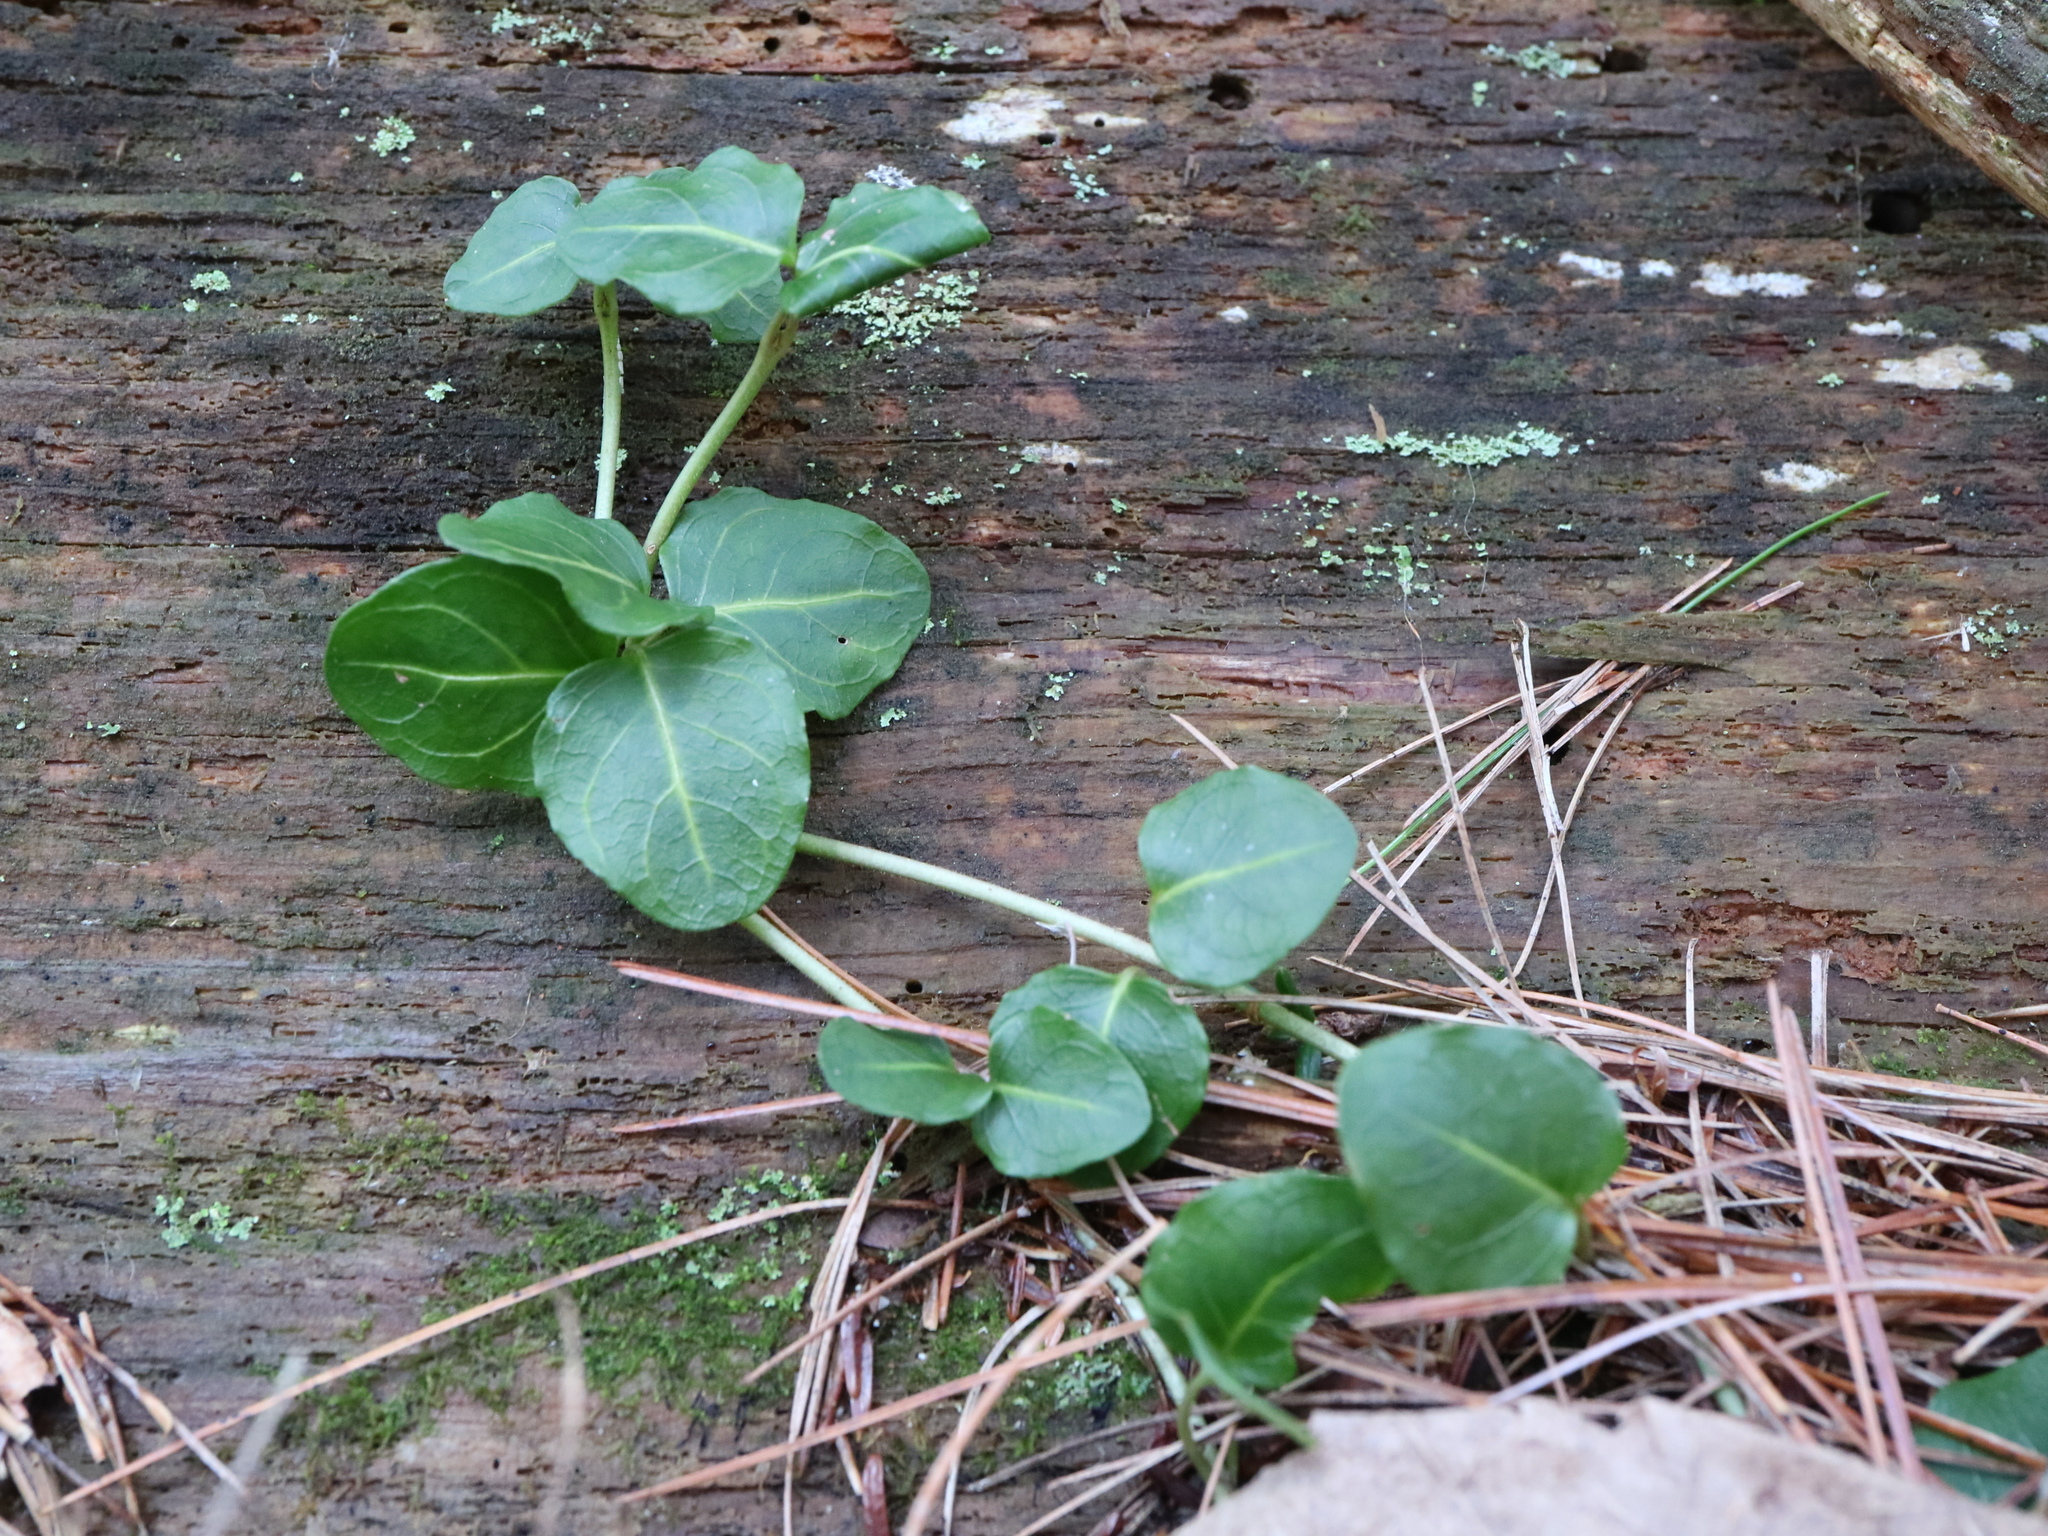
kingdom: Plantae
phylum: Tracheophyta
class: Magnoliopsida
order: Gentianales
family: Rubiaceae
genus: Mitchella
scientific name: Mitchella repens
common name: Partridge-berry
